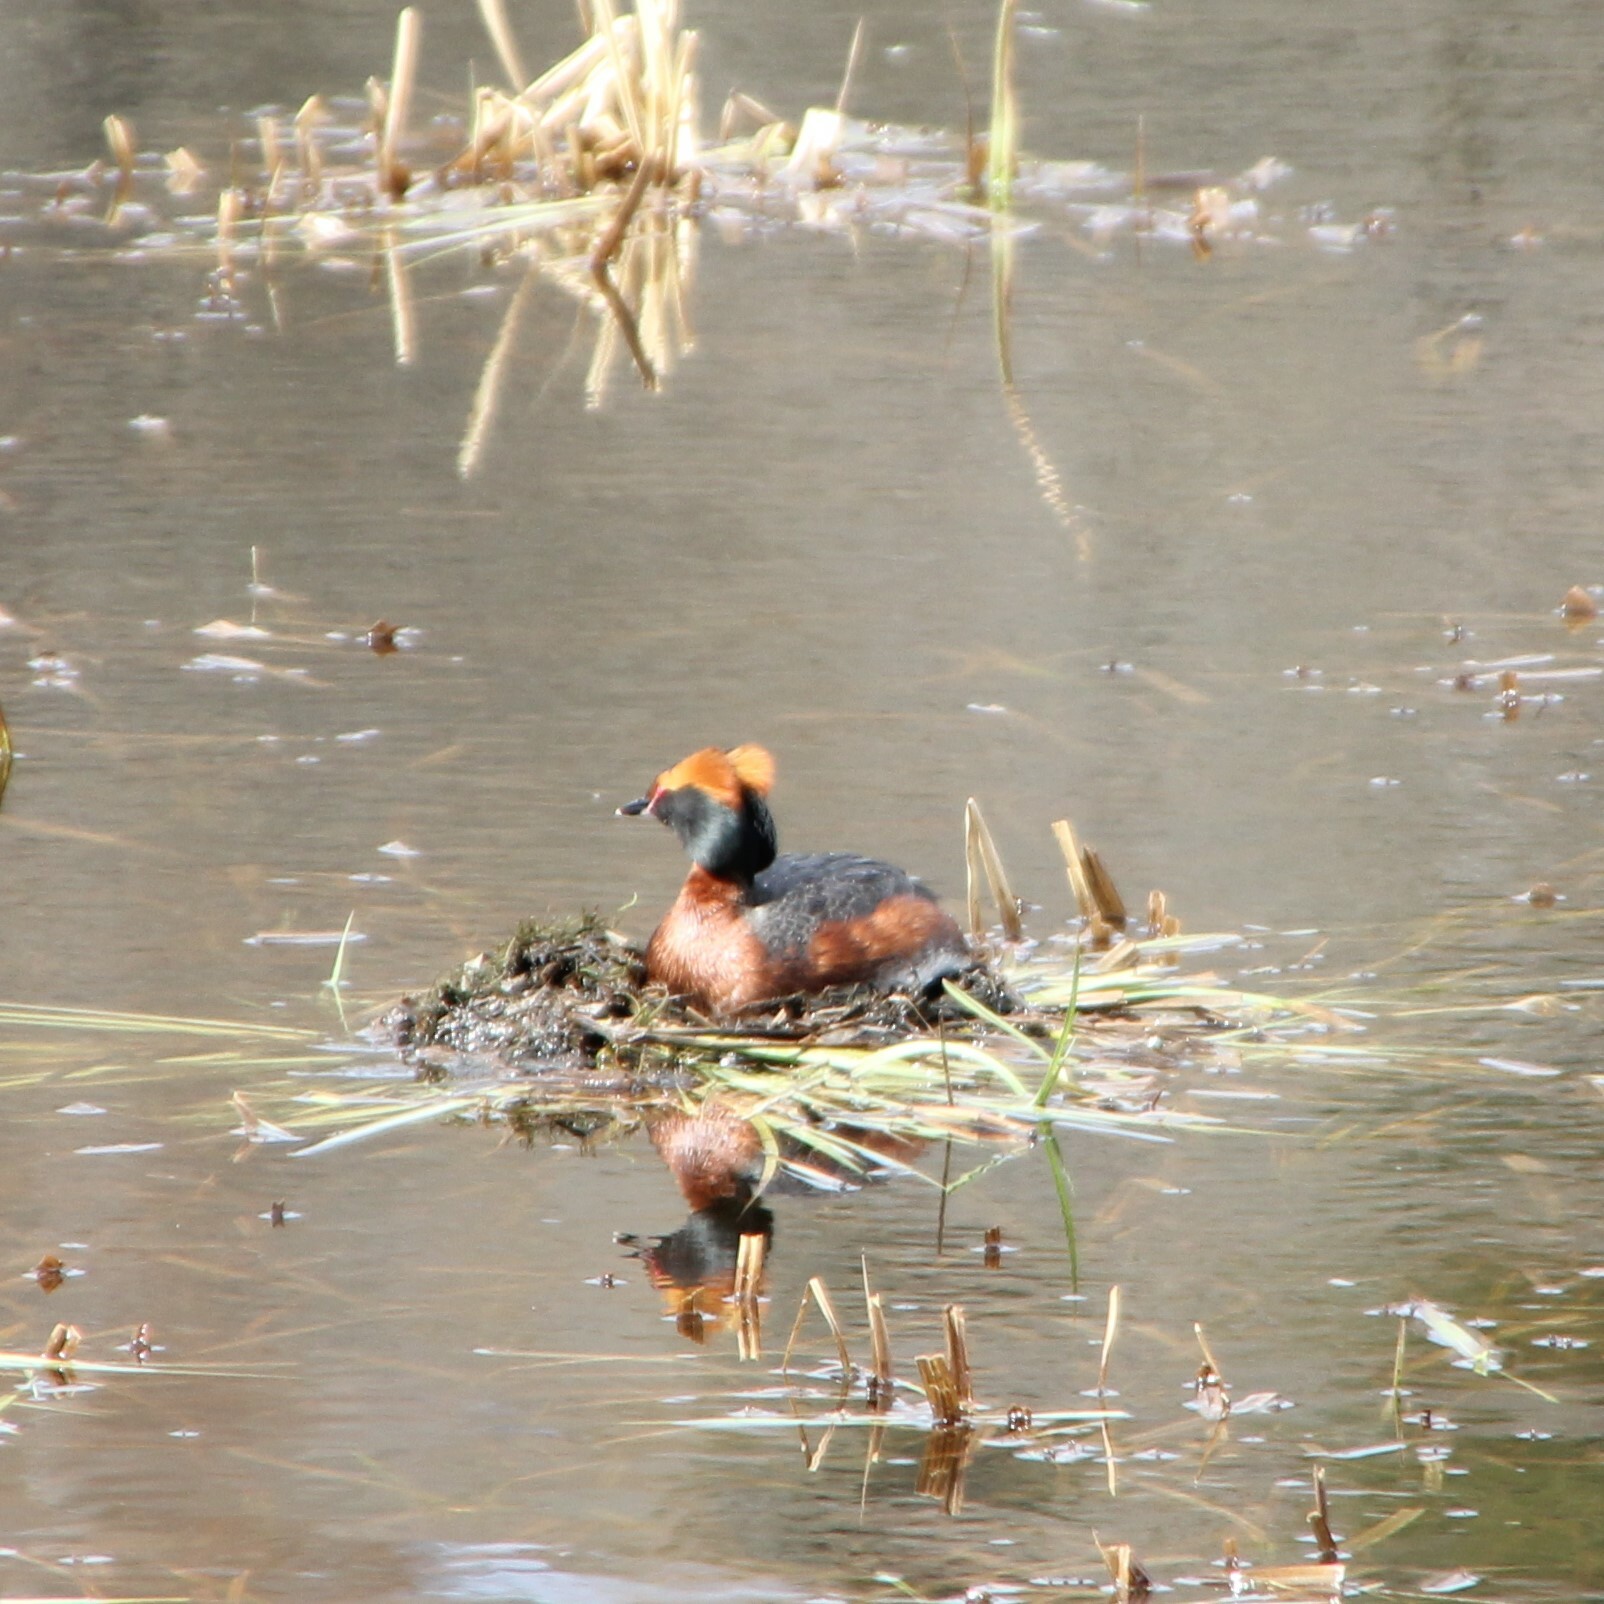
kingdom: Animalia
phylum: Chordata
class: Aves
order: Podicipediformes
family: Podicipedidae
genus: Podiceps
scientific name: Podiceps auritus
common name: Horned grebe
